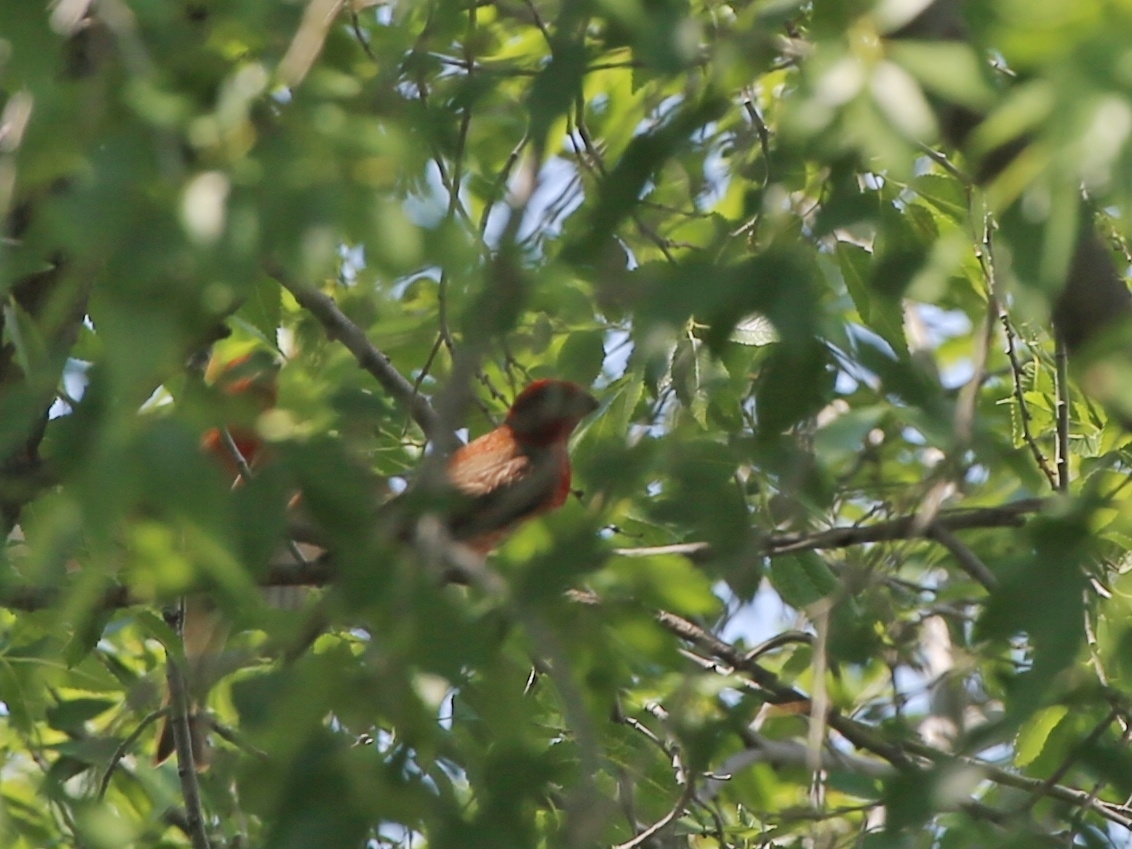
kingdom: Animalia
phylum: Chordata
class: Aves
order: Passeriformes
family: Fringillidae
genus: Carpodacus
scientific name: Carpodacus erythrinus
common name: Common rosefinch
